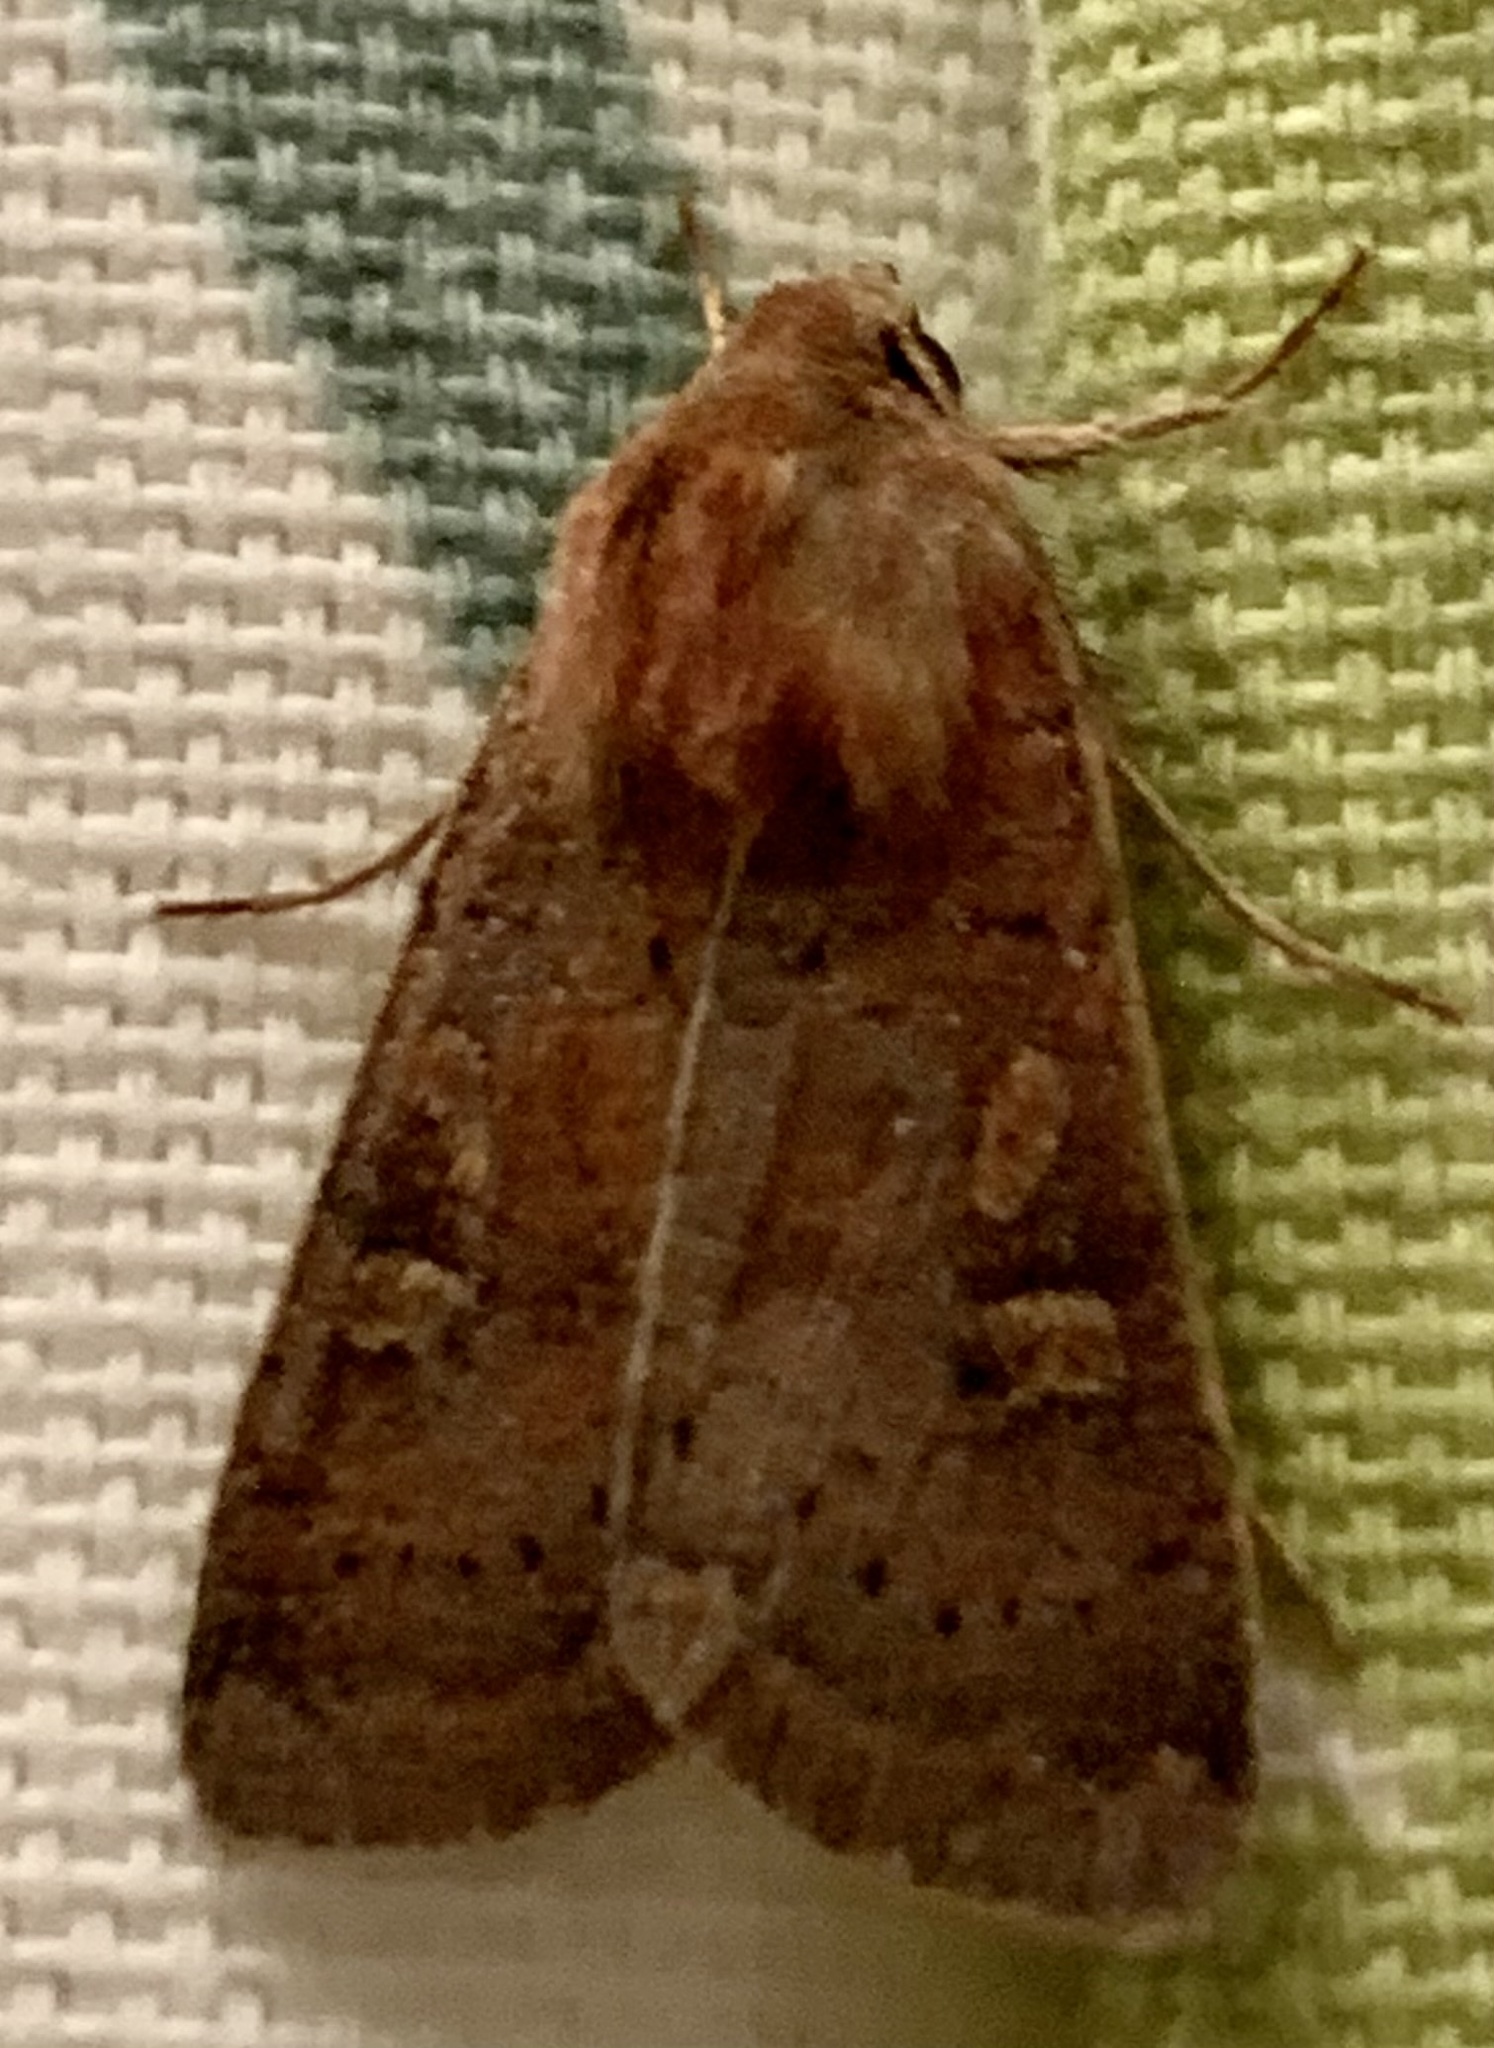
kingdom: Animalia
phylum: Arthropoda
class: Insecta
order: Lepidoptera
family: Noctuidae
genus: Xestia
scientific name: Xestia xanthographa
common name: Square-spot rustic
